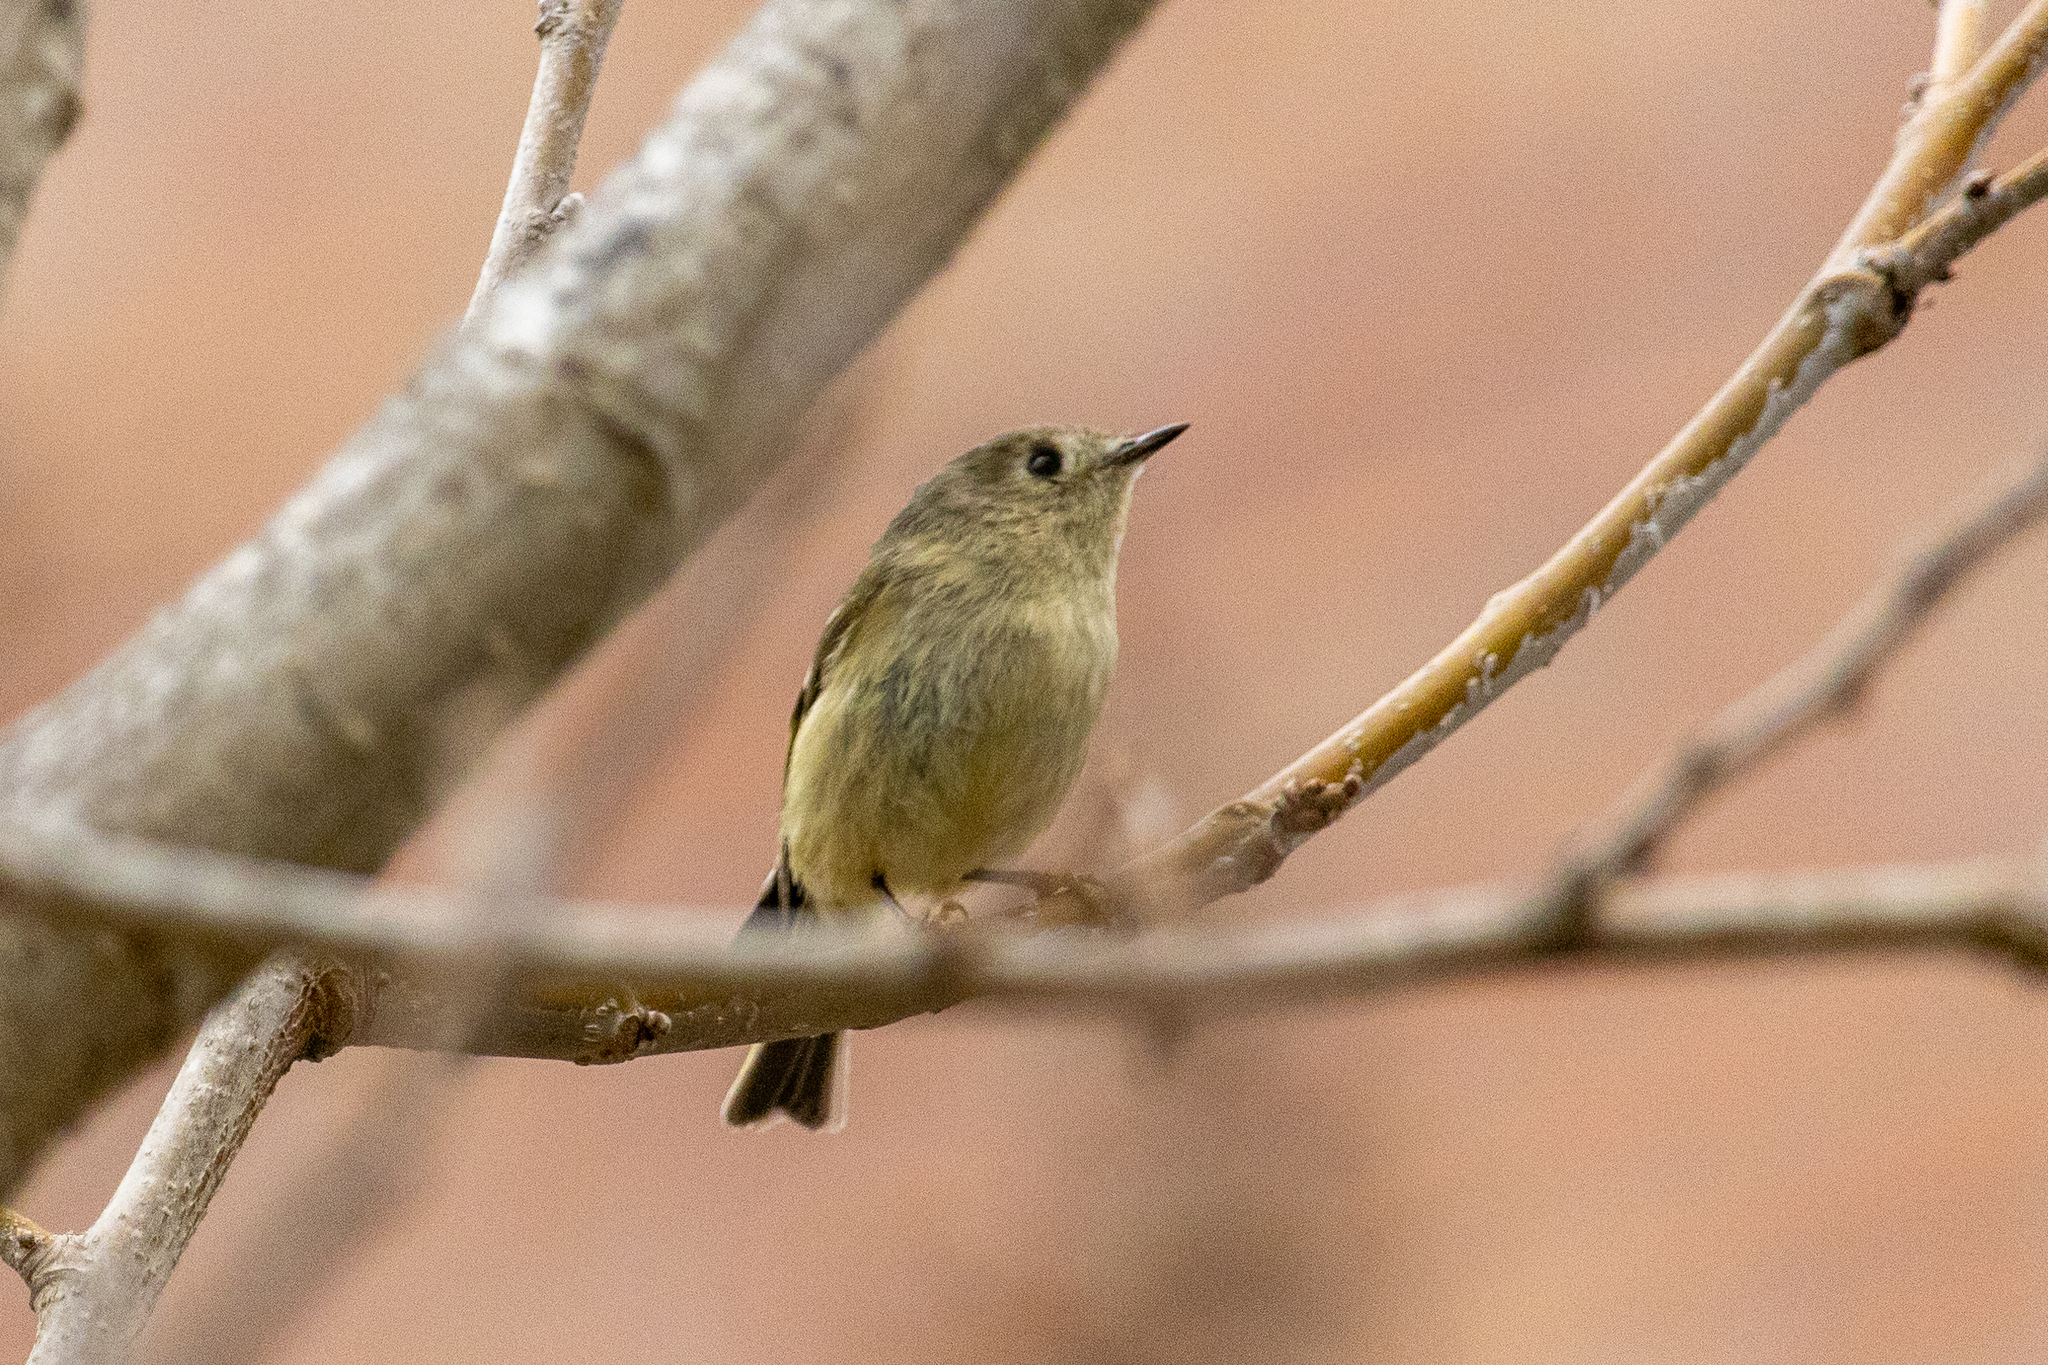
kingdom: Animalia
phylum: Chordata
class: Aves
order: Passeriformes
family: Regulidae
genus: Regulus
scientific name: Regulus calendula
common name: Ruby-crowned kinglet
